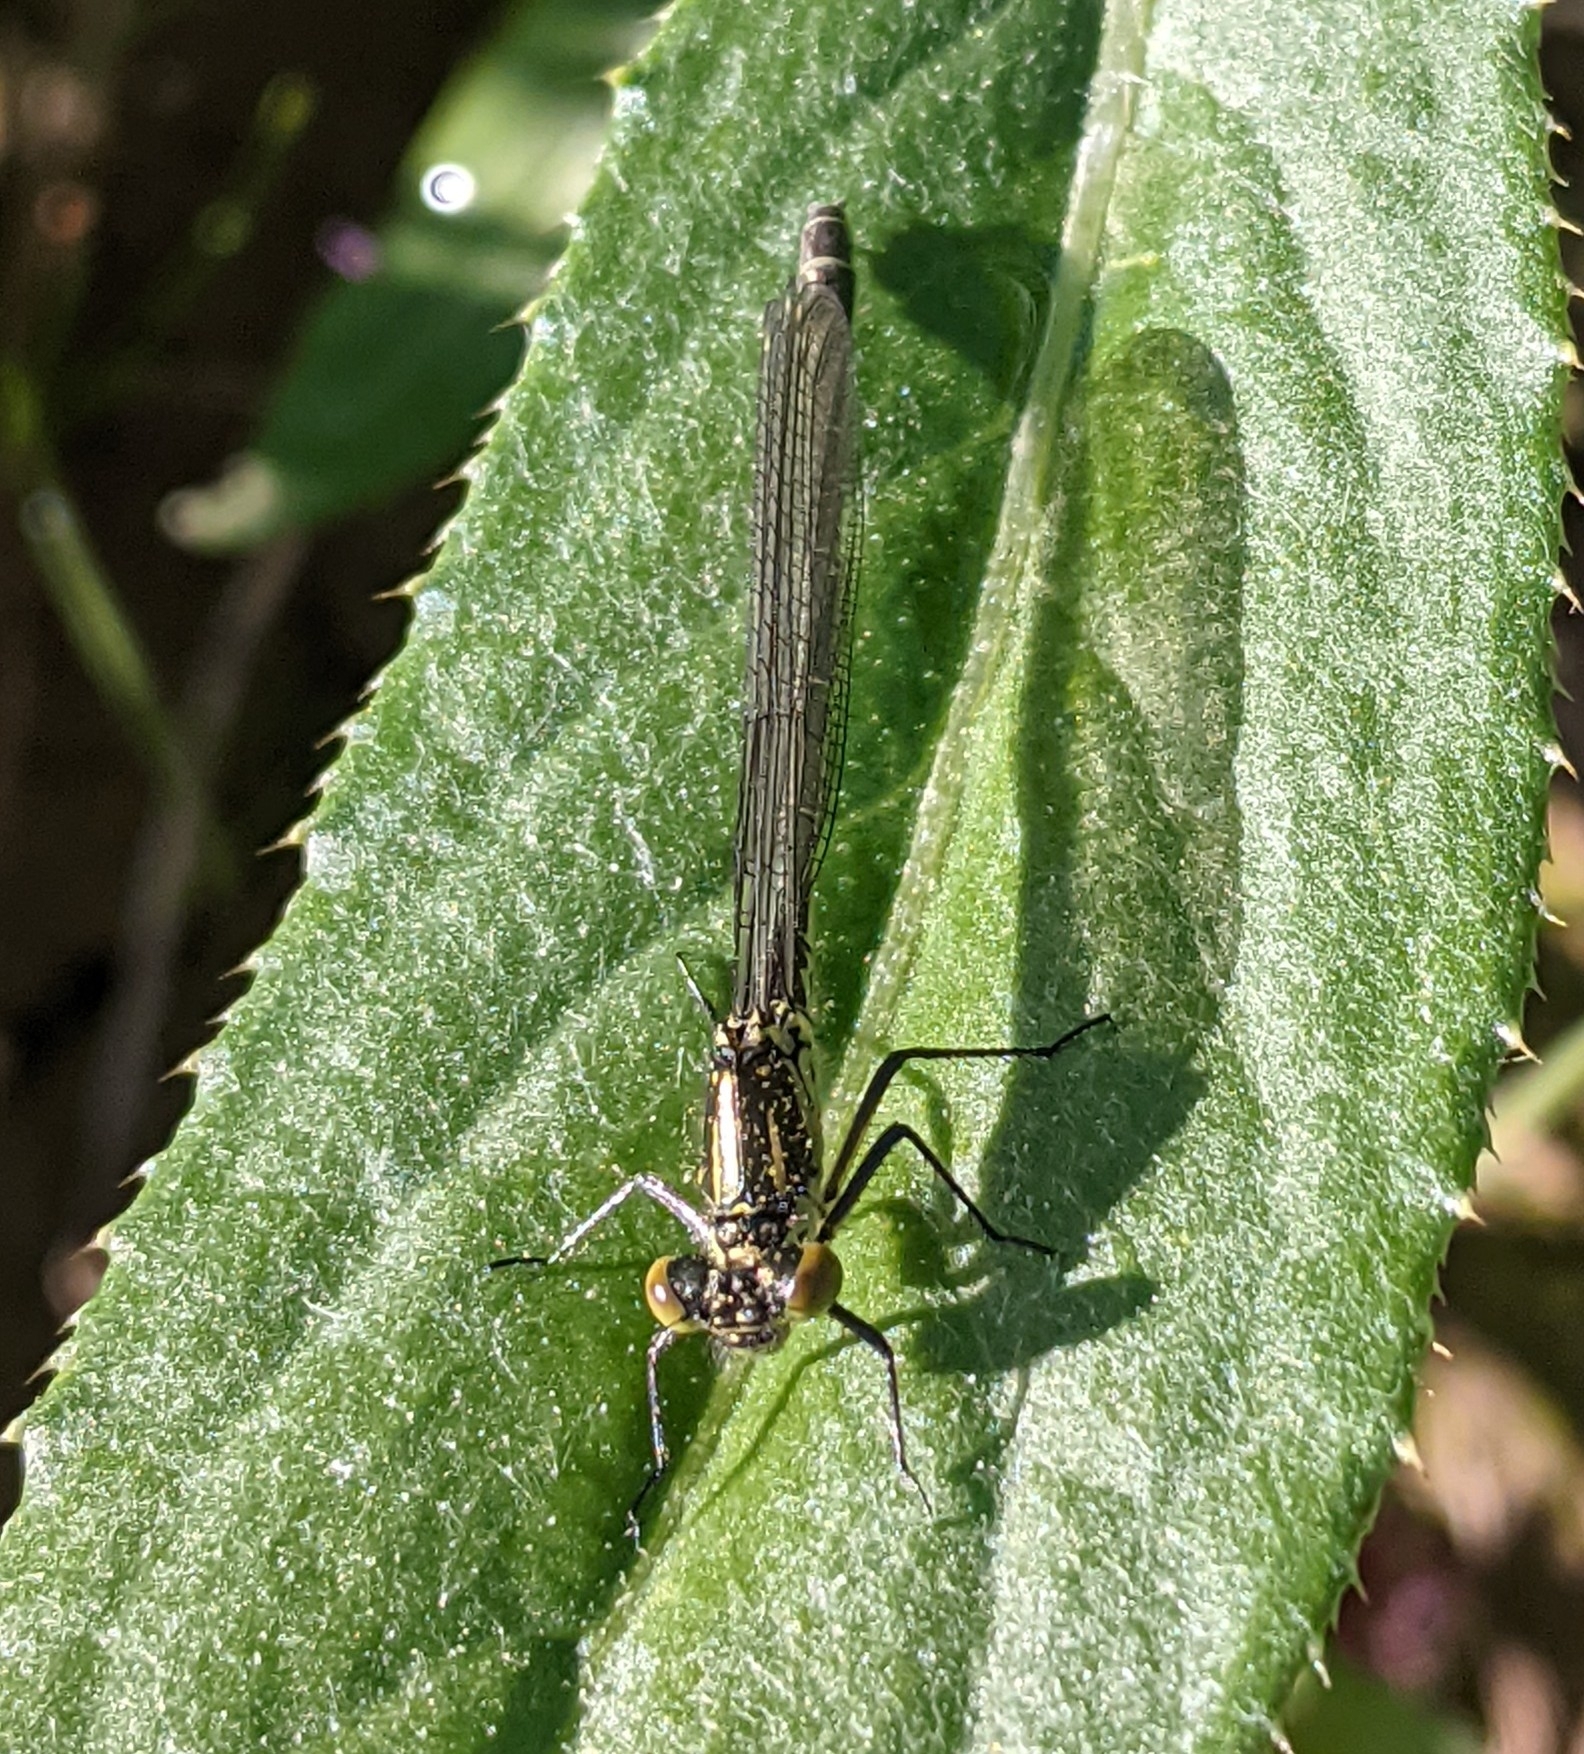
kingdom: Animalia
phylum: Arthropoda
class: Insecta
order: Odonata
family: Coenagrionidae
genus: Erythromma
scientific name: Erythromma najas
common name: Red-eyed damselfly
